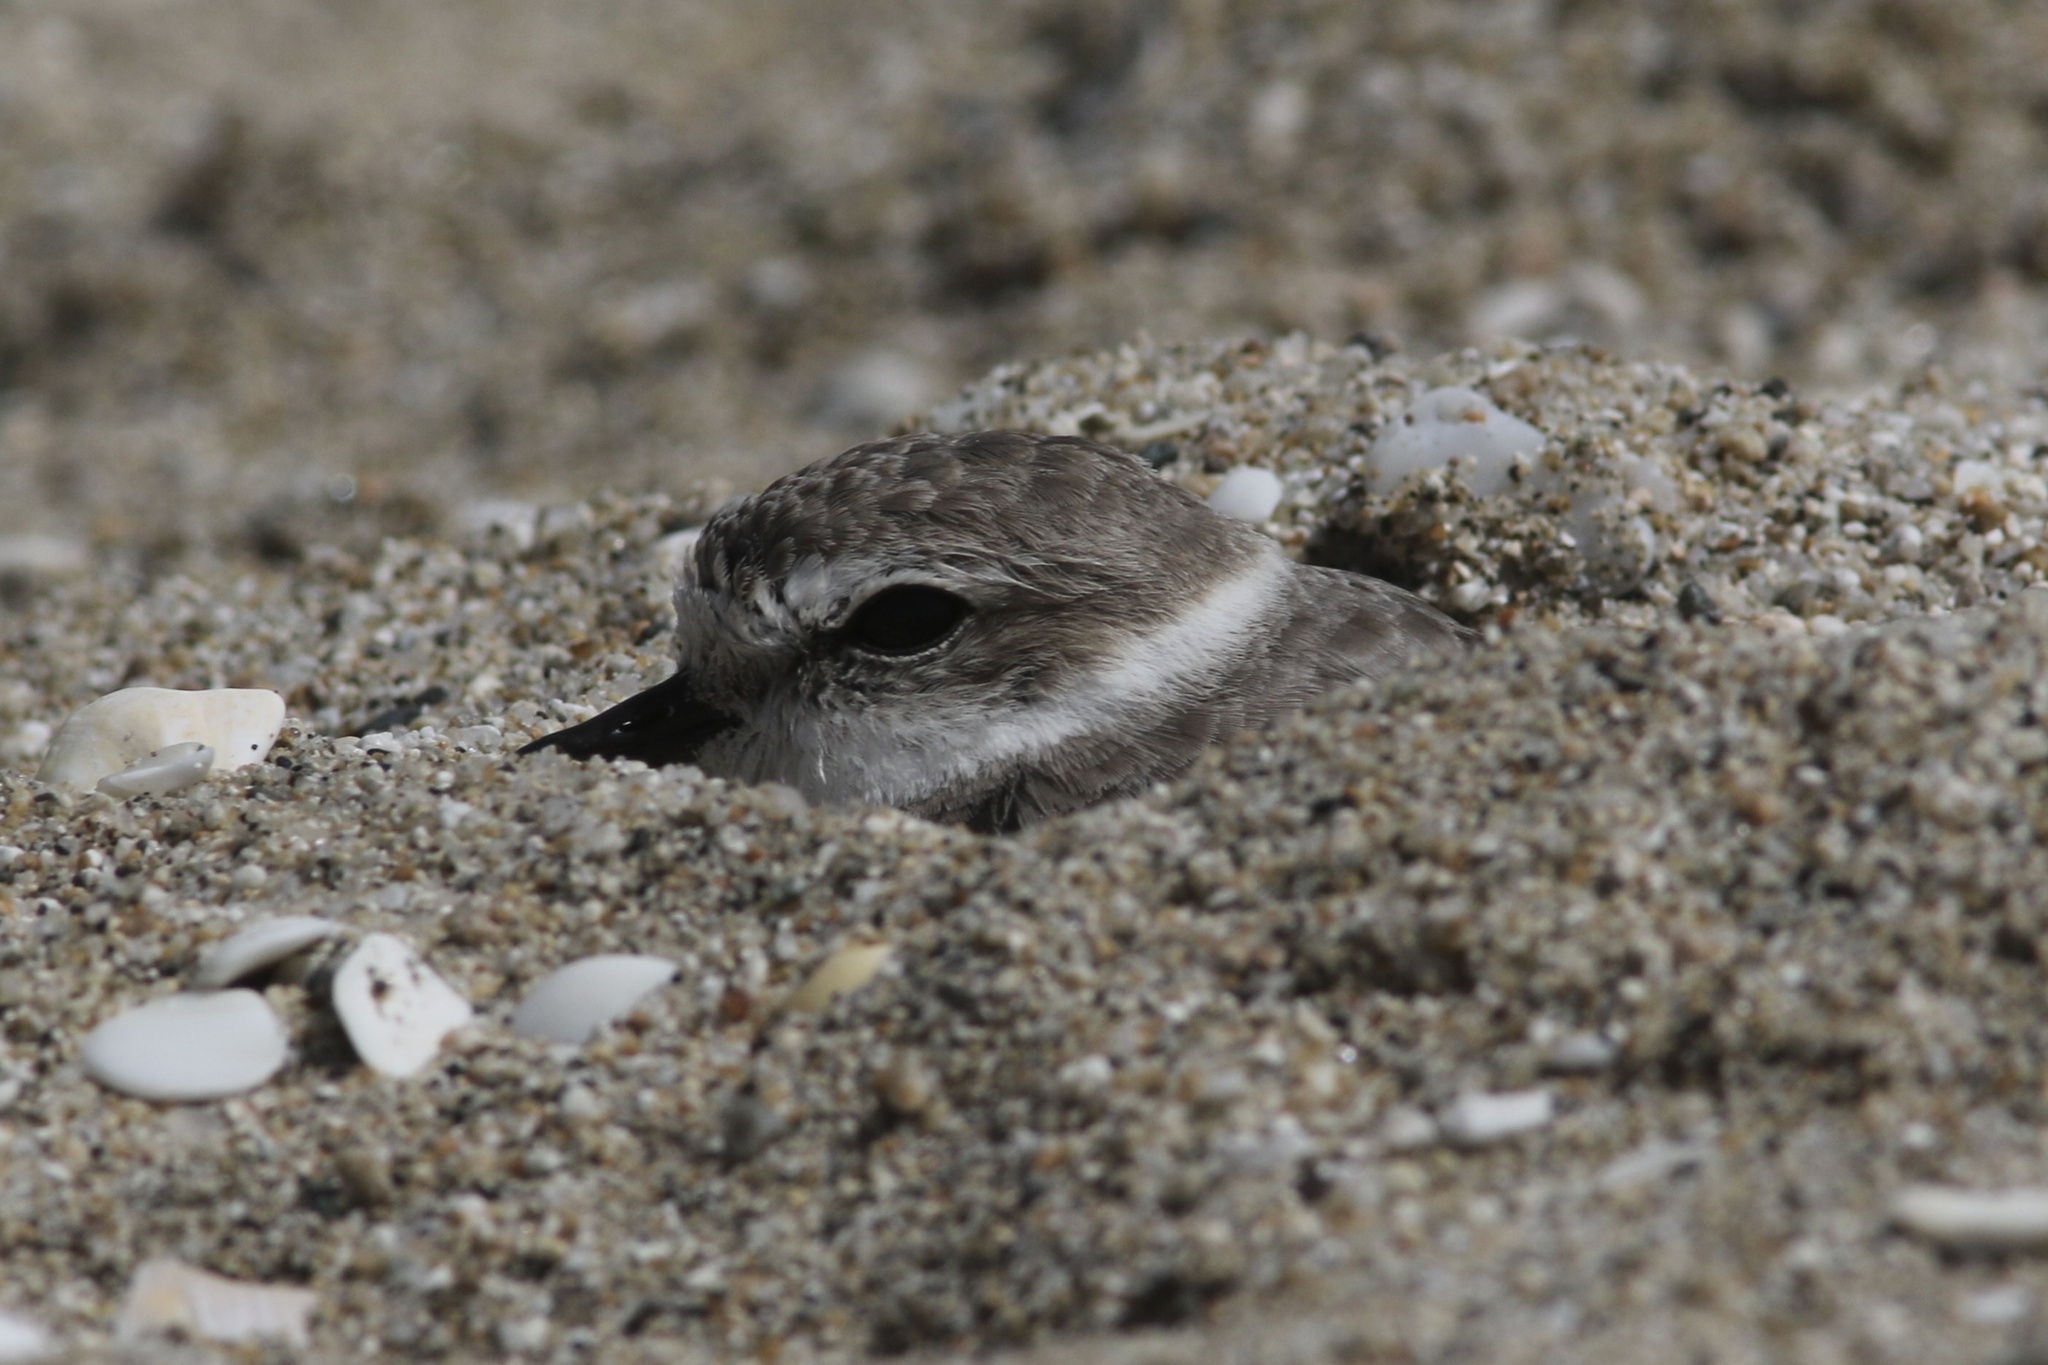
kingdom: Animalia
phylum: Chordata
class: Aves
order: Charadriiformes
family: Charadriidae
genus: Anarhynchus
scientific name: Anarhynchus
